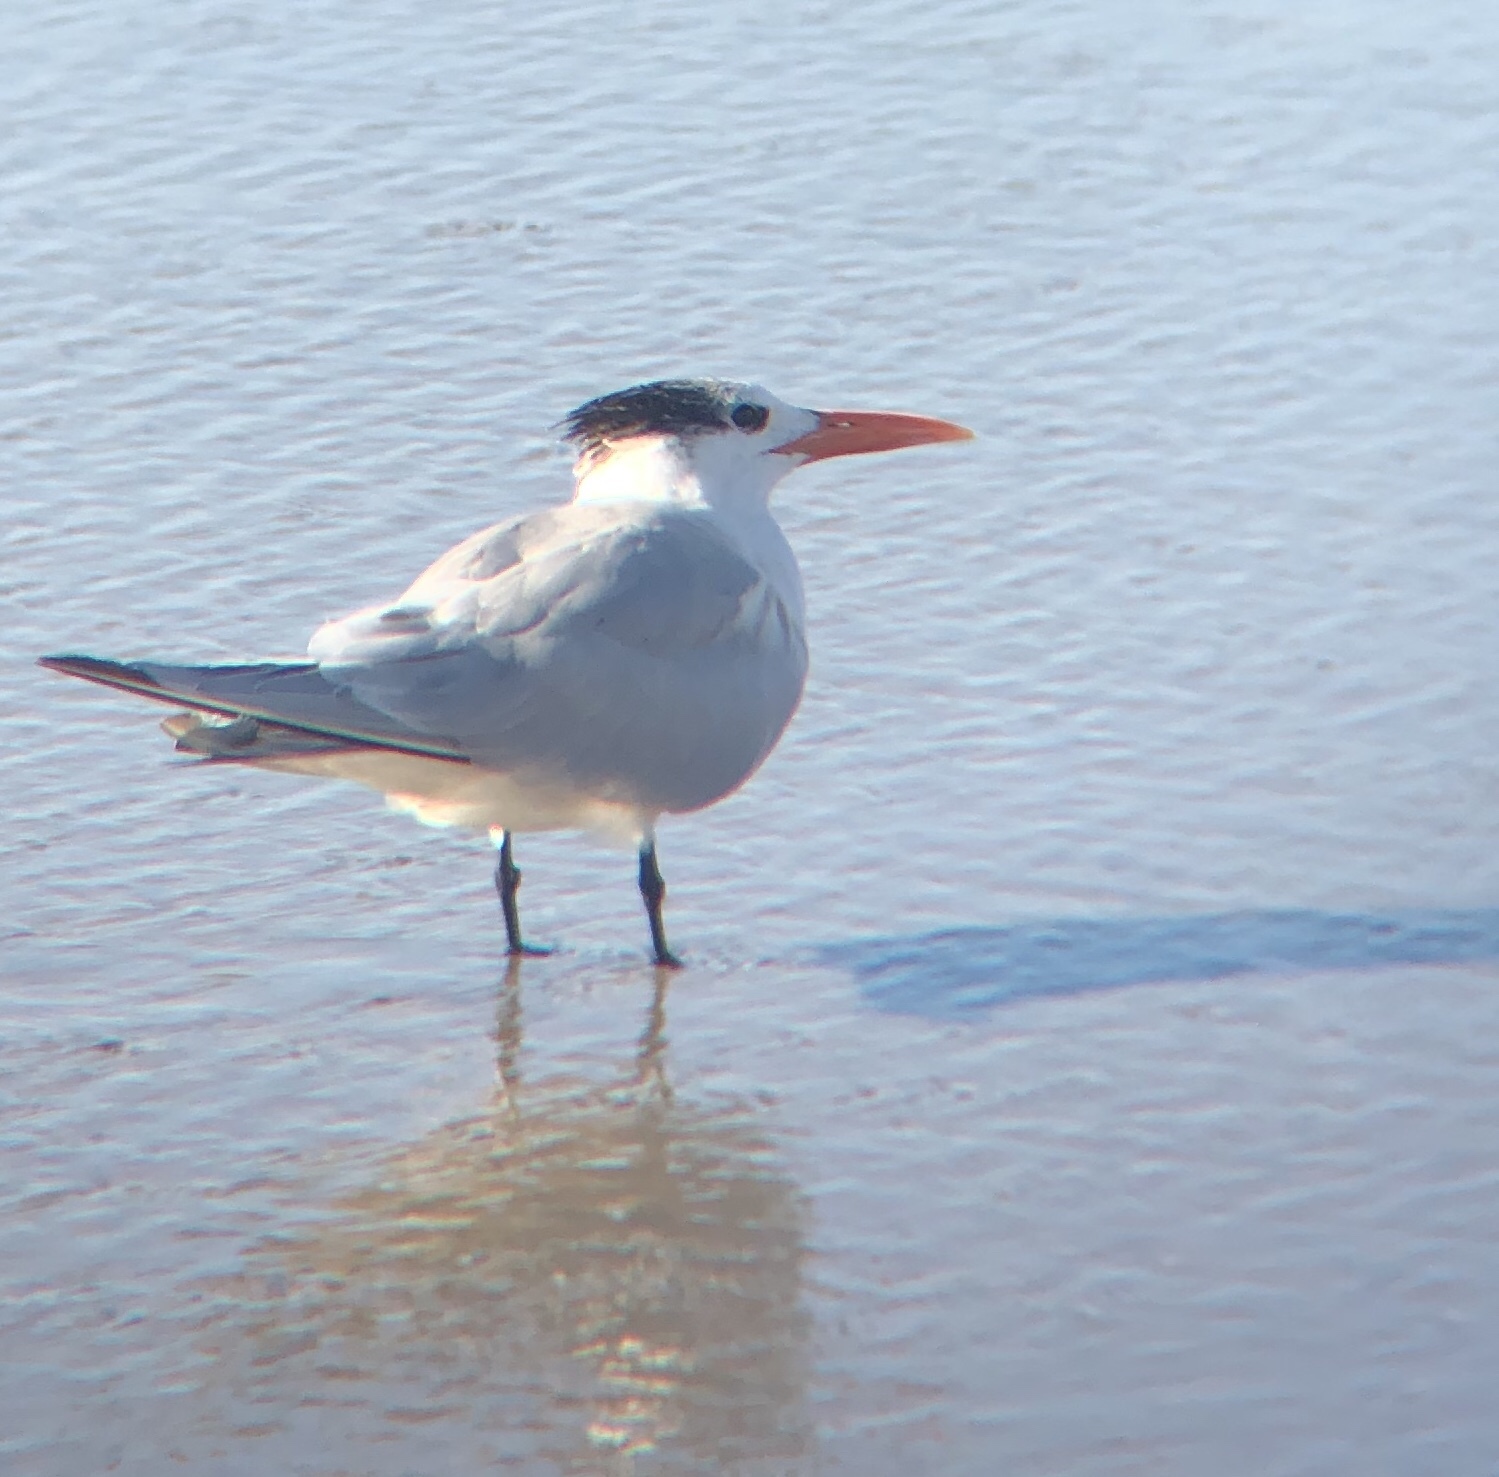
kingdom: Animalia
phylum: Chordata
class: Aves
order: Charadriiformes
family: Laridae
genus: Thalasseus
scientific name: Thalasseus maximus
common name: Royal tern
